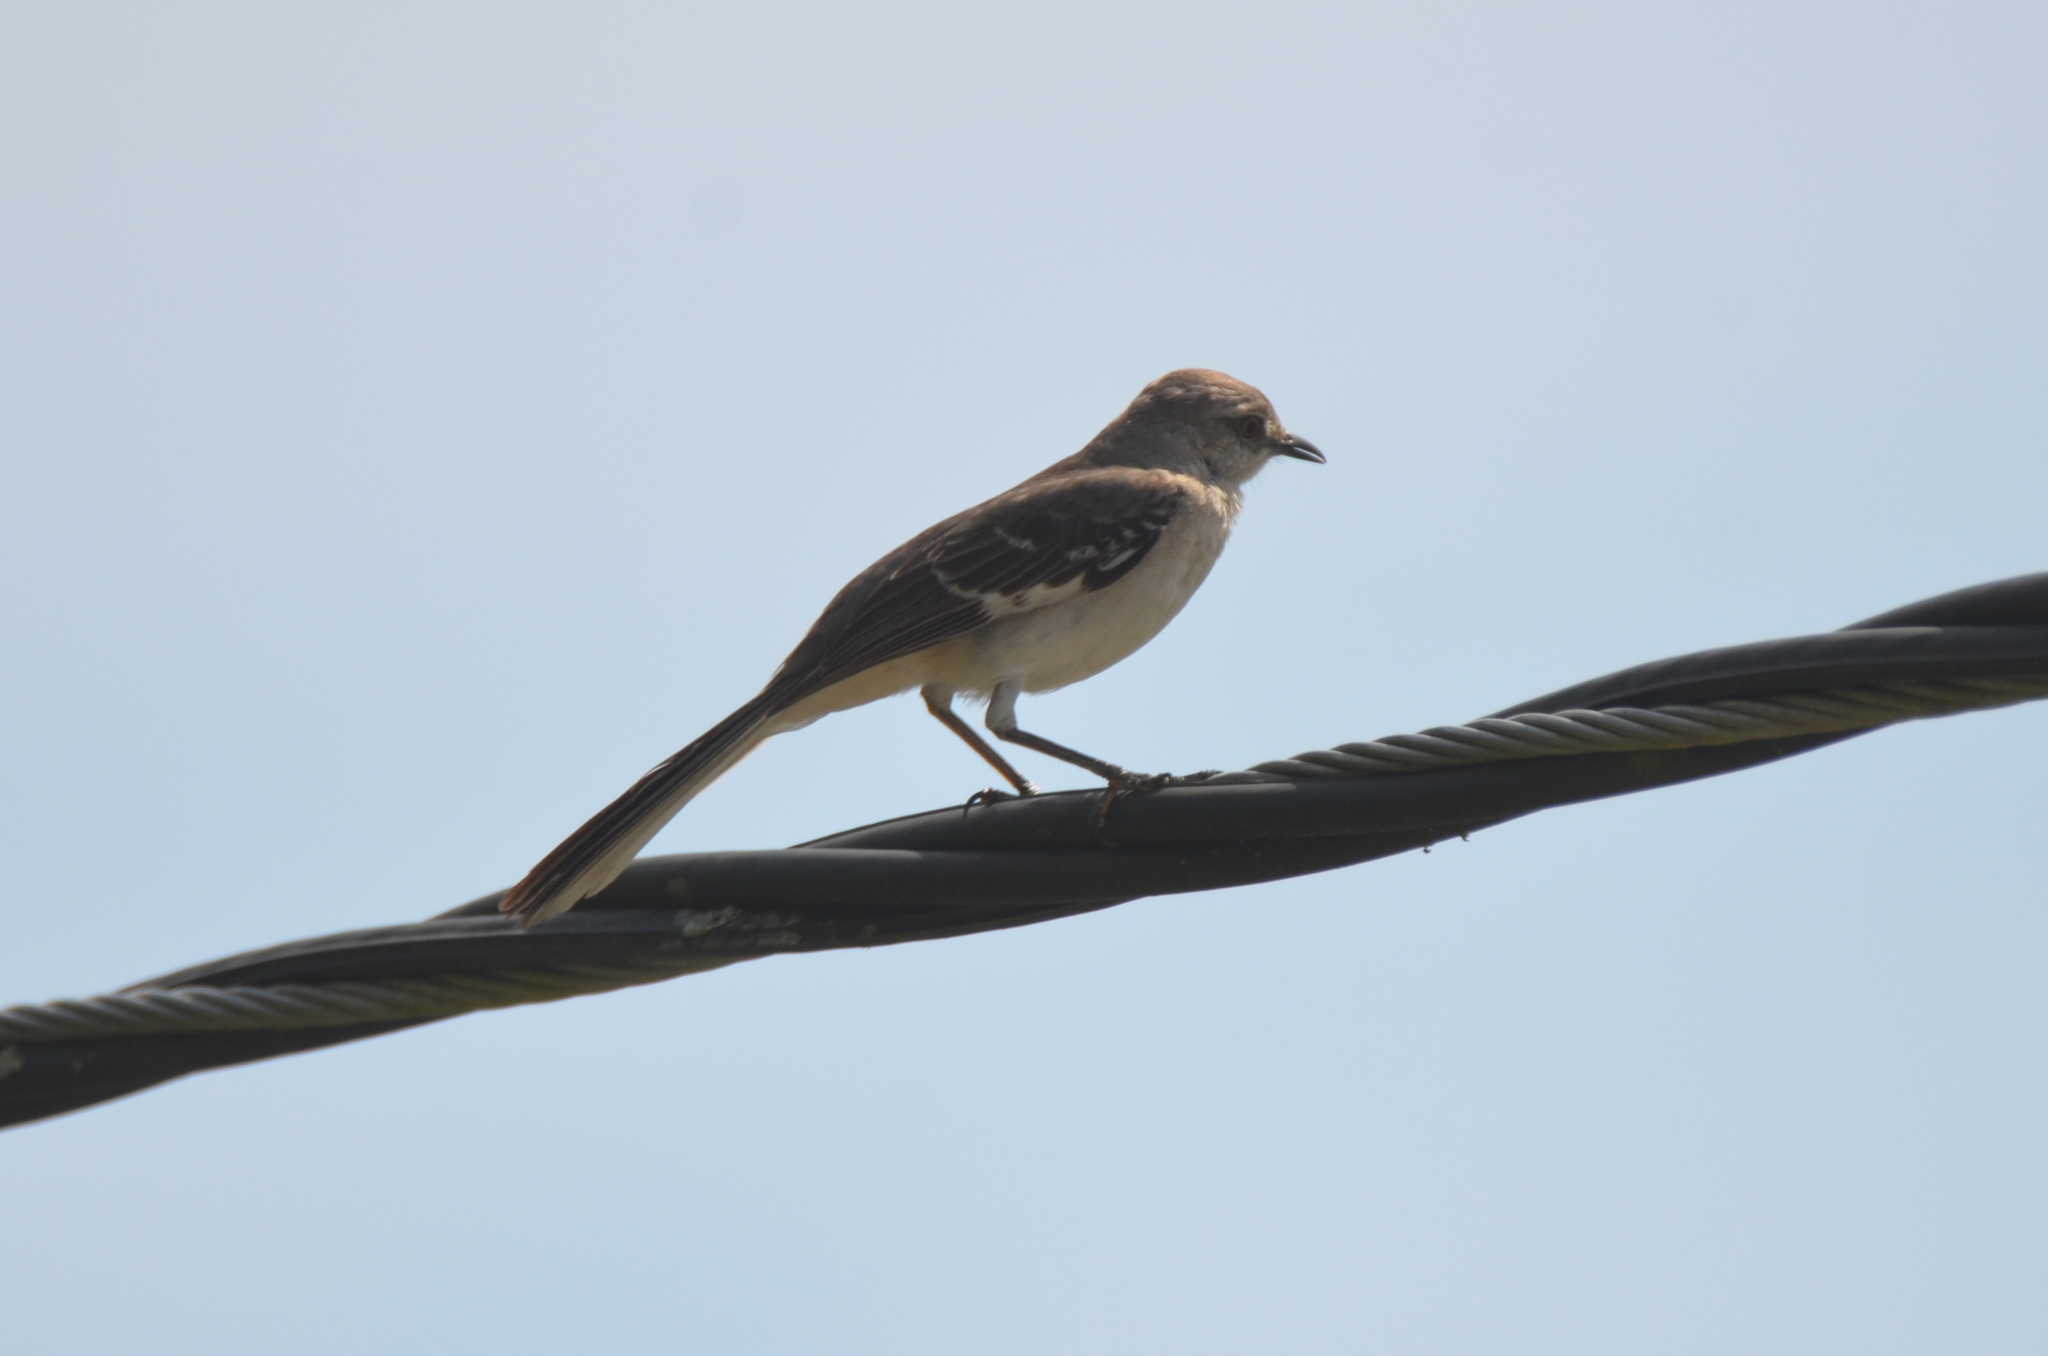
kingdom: Animalia
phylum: Chordata
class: Aves
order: Passeriformes
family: Mimidae
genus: Mimus
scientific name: Mimus polyglottos
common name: Northern mockingbird
